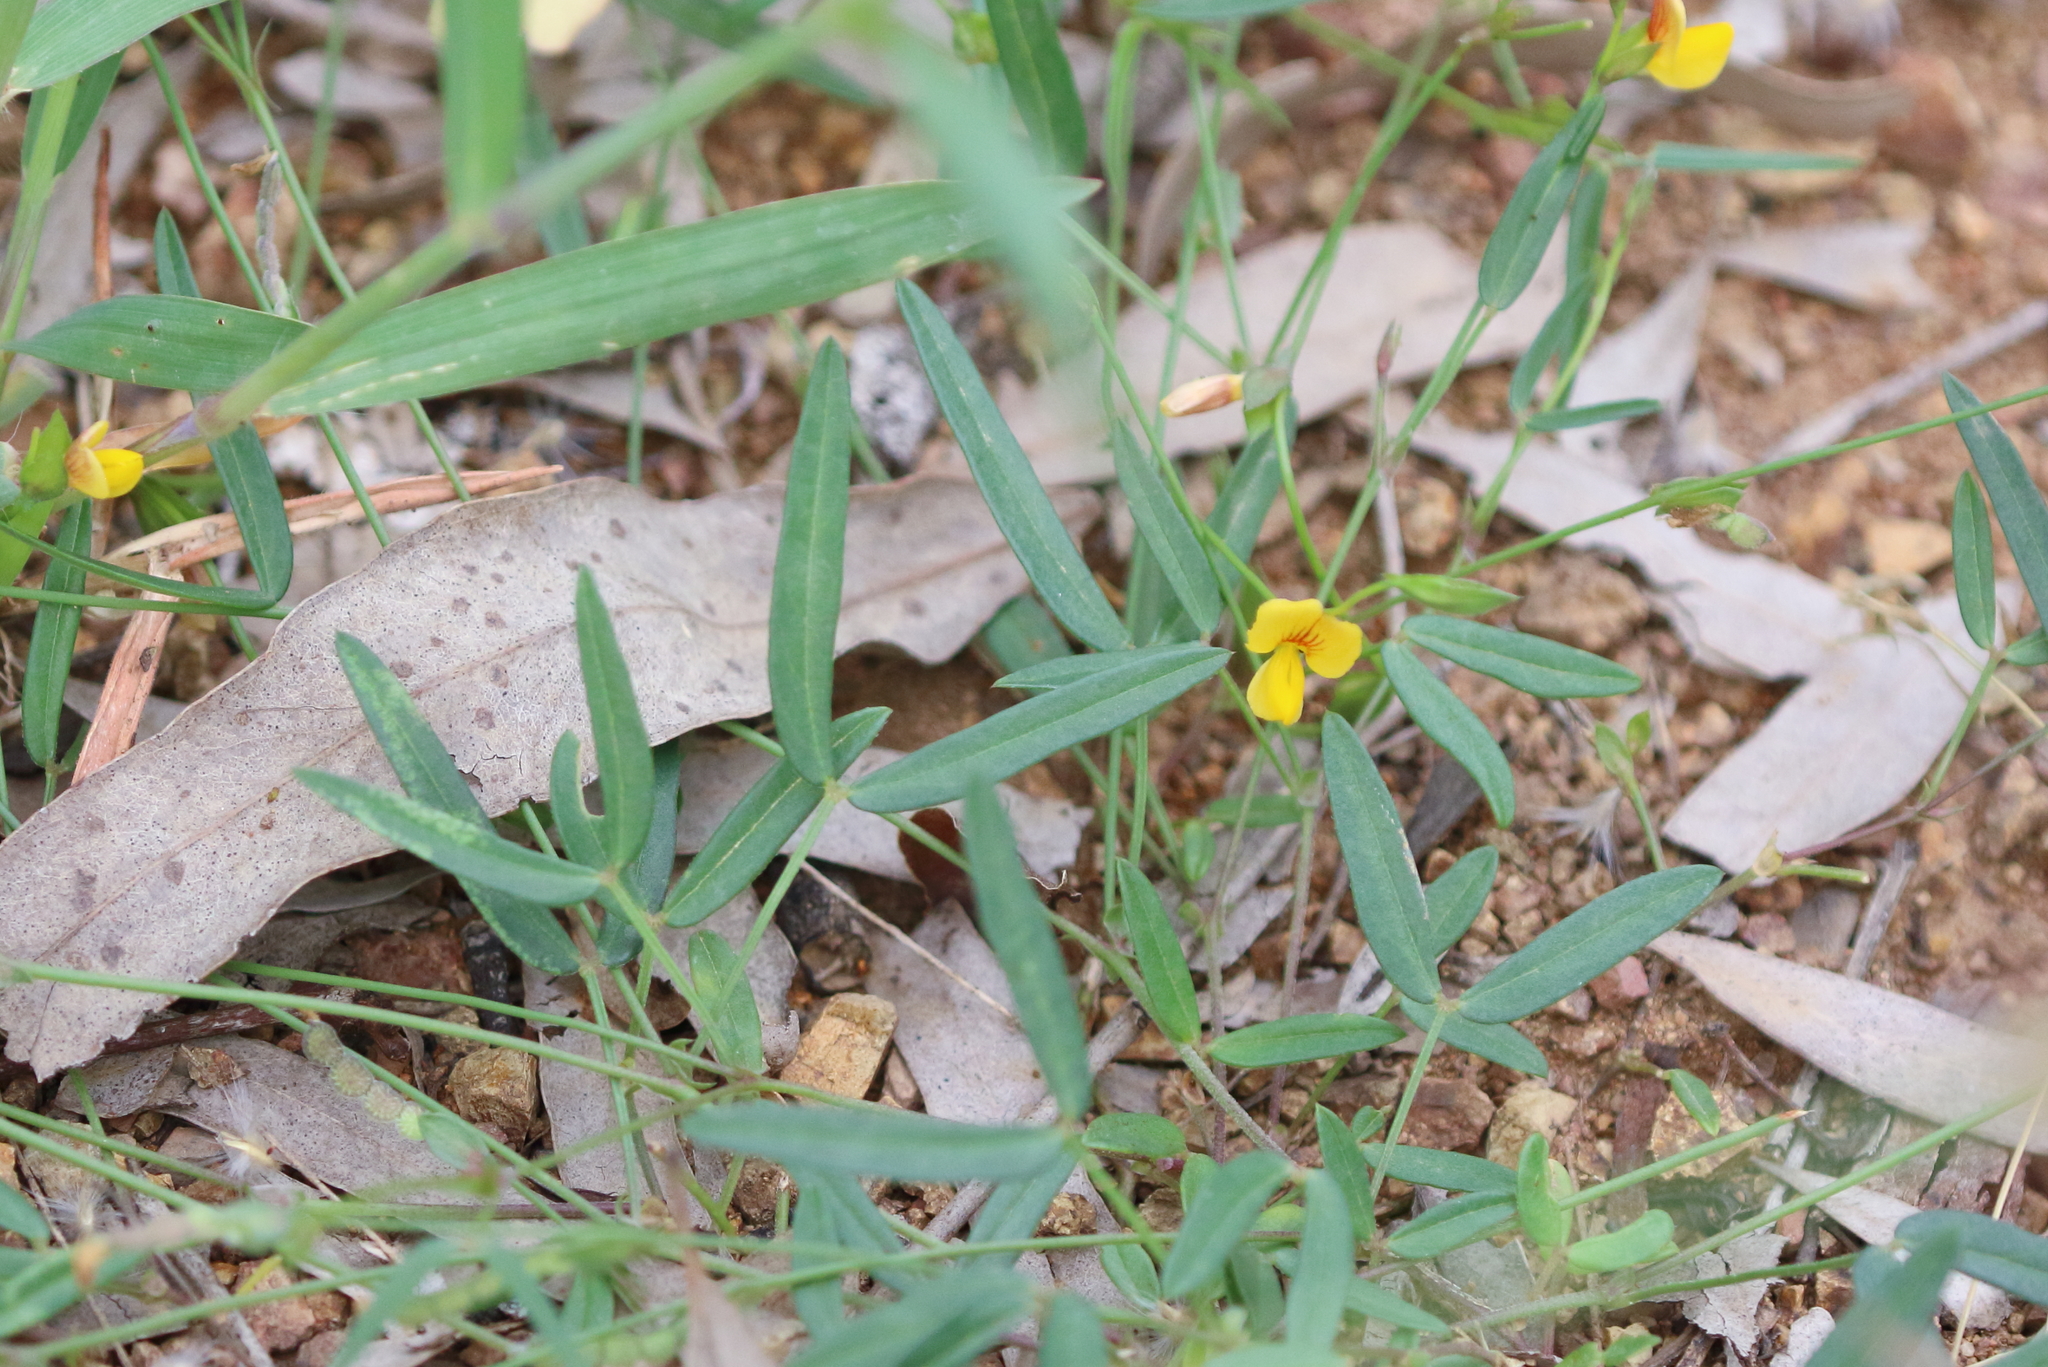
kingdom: Plantae
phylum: Tracheophyta
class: Magnoliopsida
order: Fabales
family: Fabaceae
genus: Zornia
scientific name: Zornia dyctiocarpa
